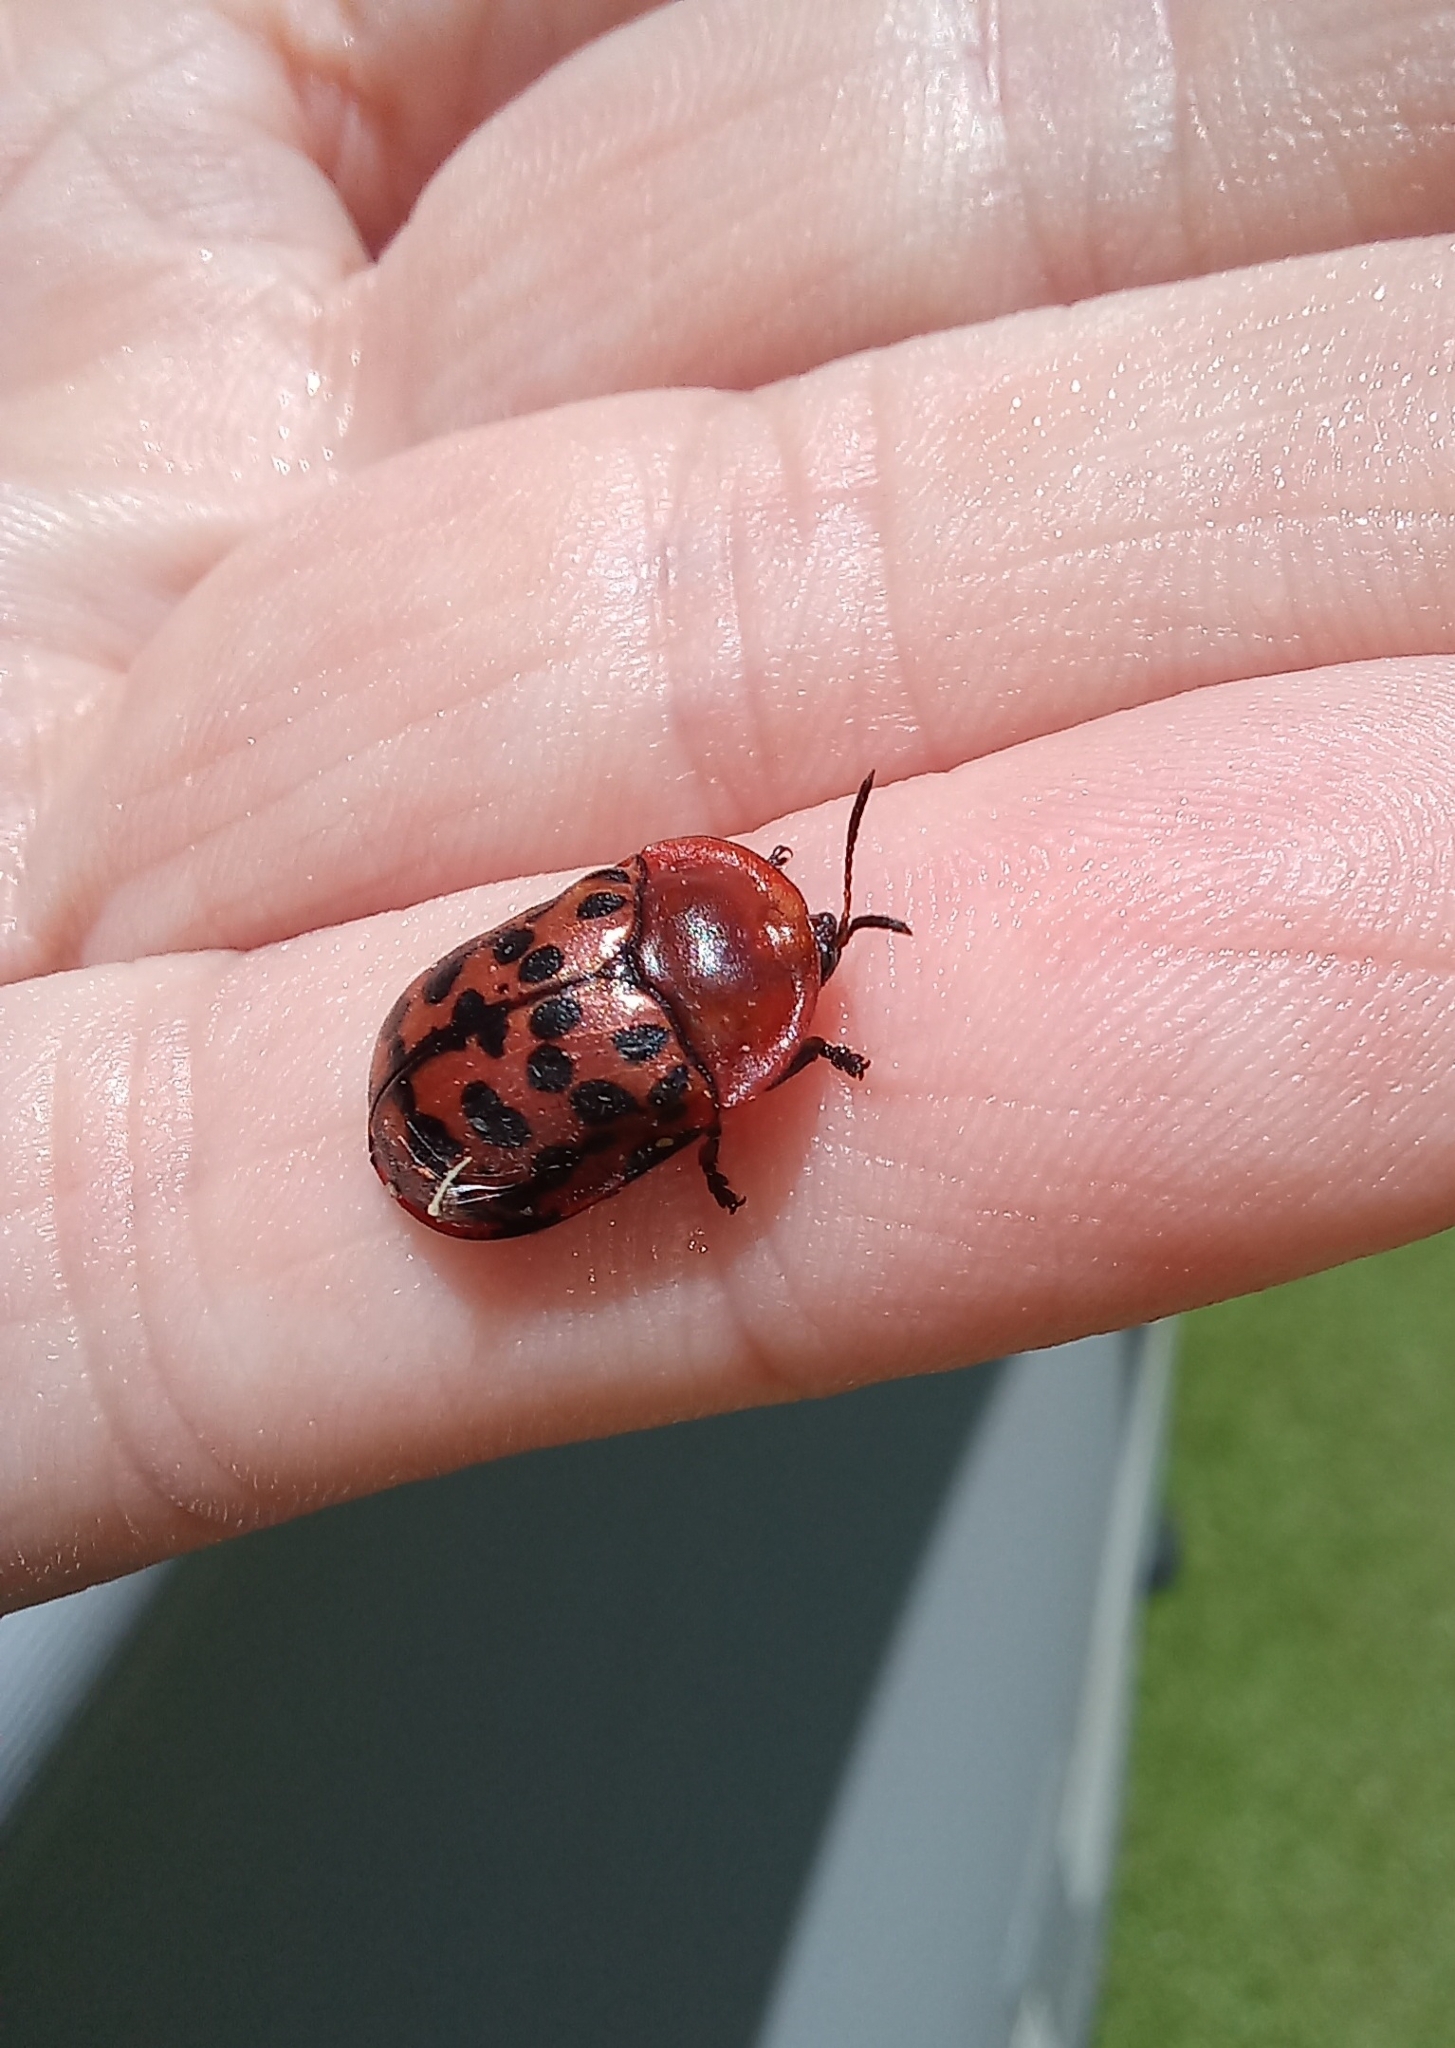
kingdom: Animalia
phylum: Arthropoda
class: Insecta
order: Coleoptera
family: Chrysomelidae
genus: Conchyloctenia
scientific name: Conchyloctenia punctata
